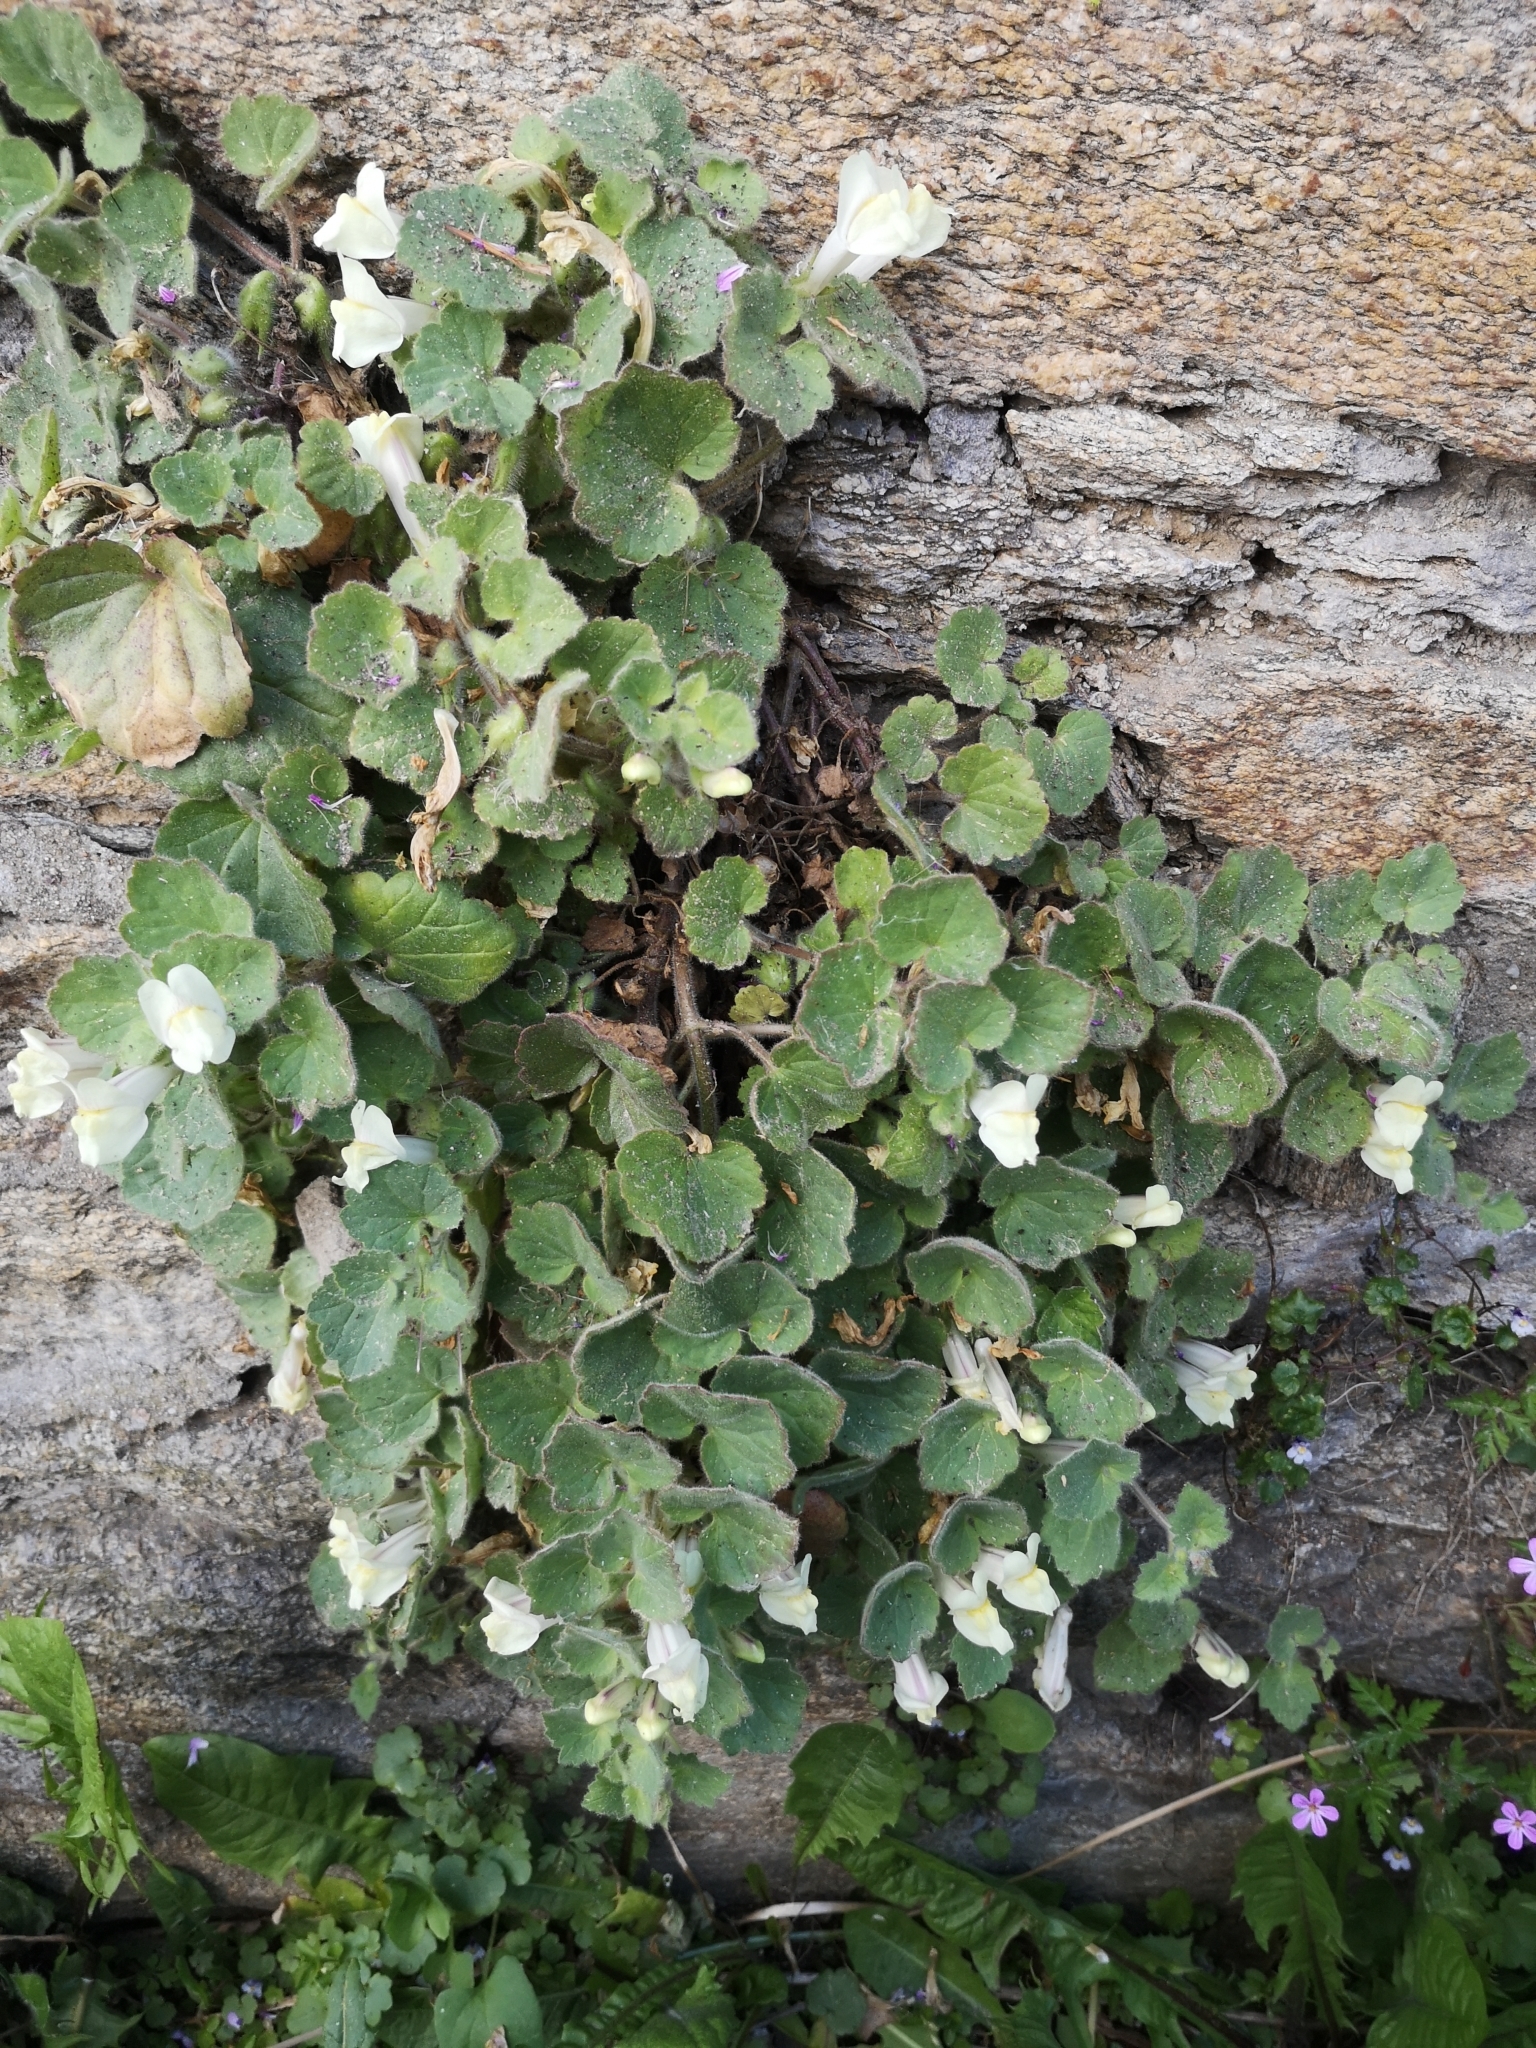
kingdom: Plantae
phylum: Tracheophyta
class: Magnoliopsida
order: Lamiales
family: Plantaginaceae
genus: Asarina
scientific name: Asarina procumbens
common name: Trailing snapdragon
